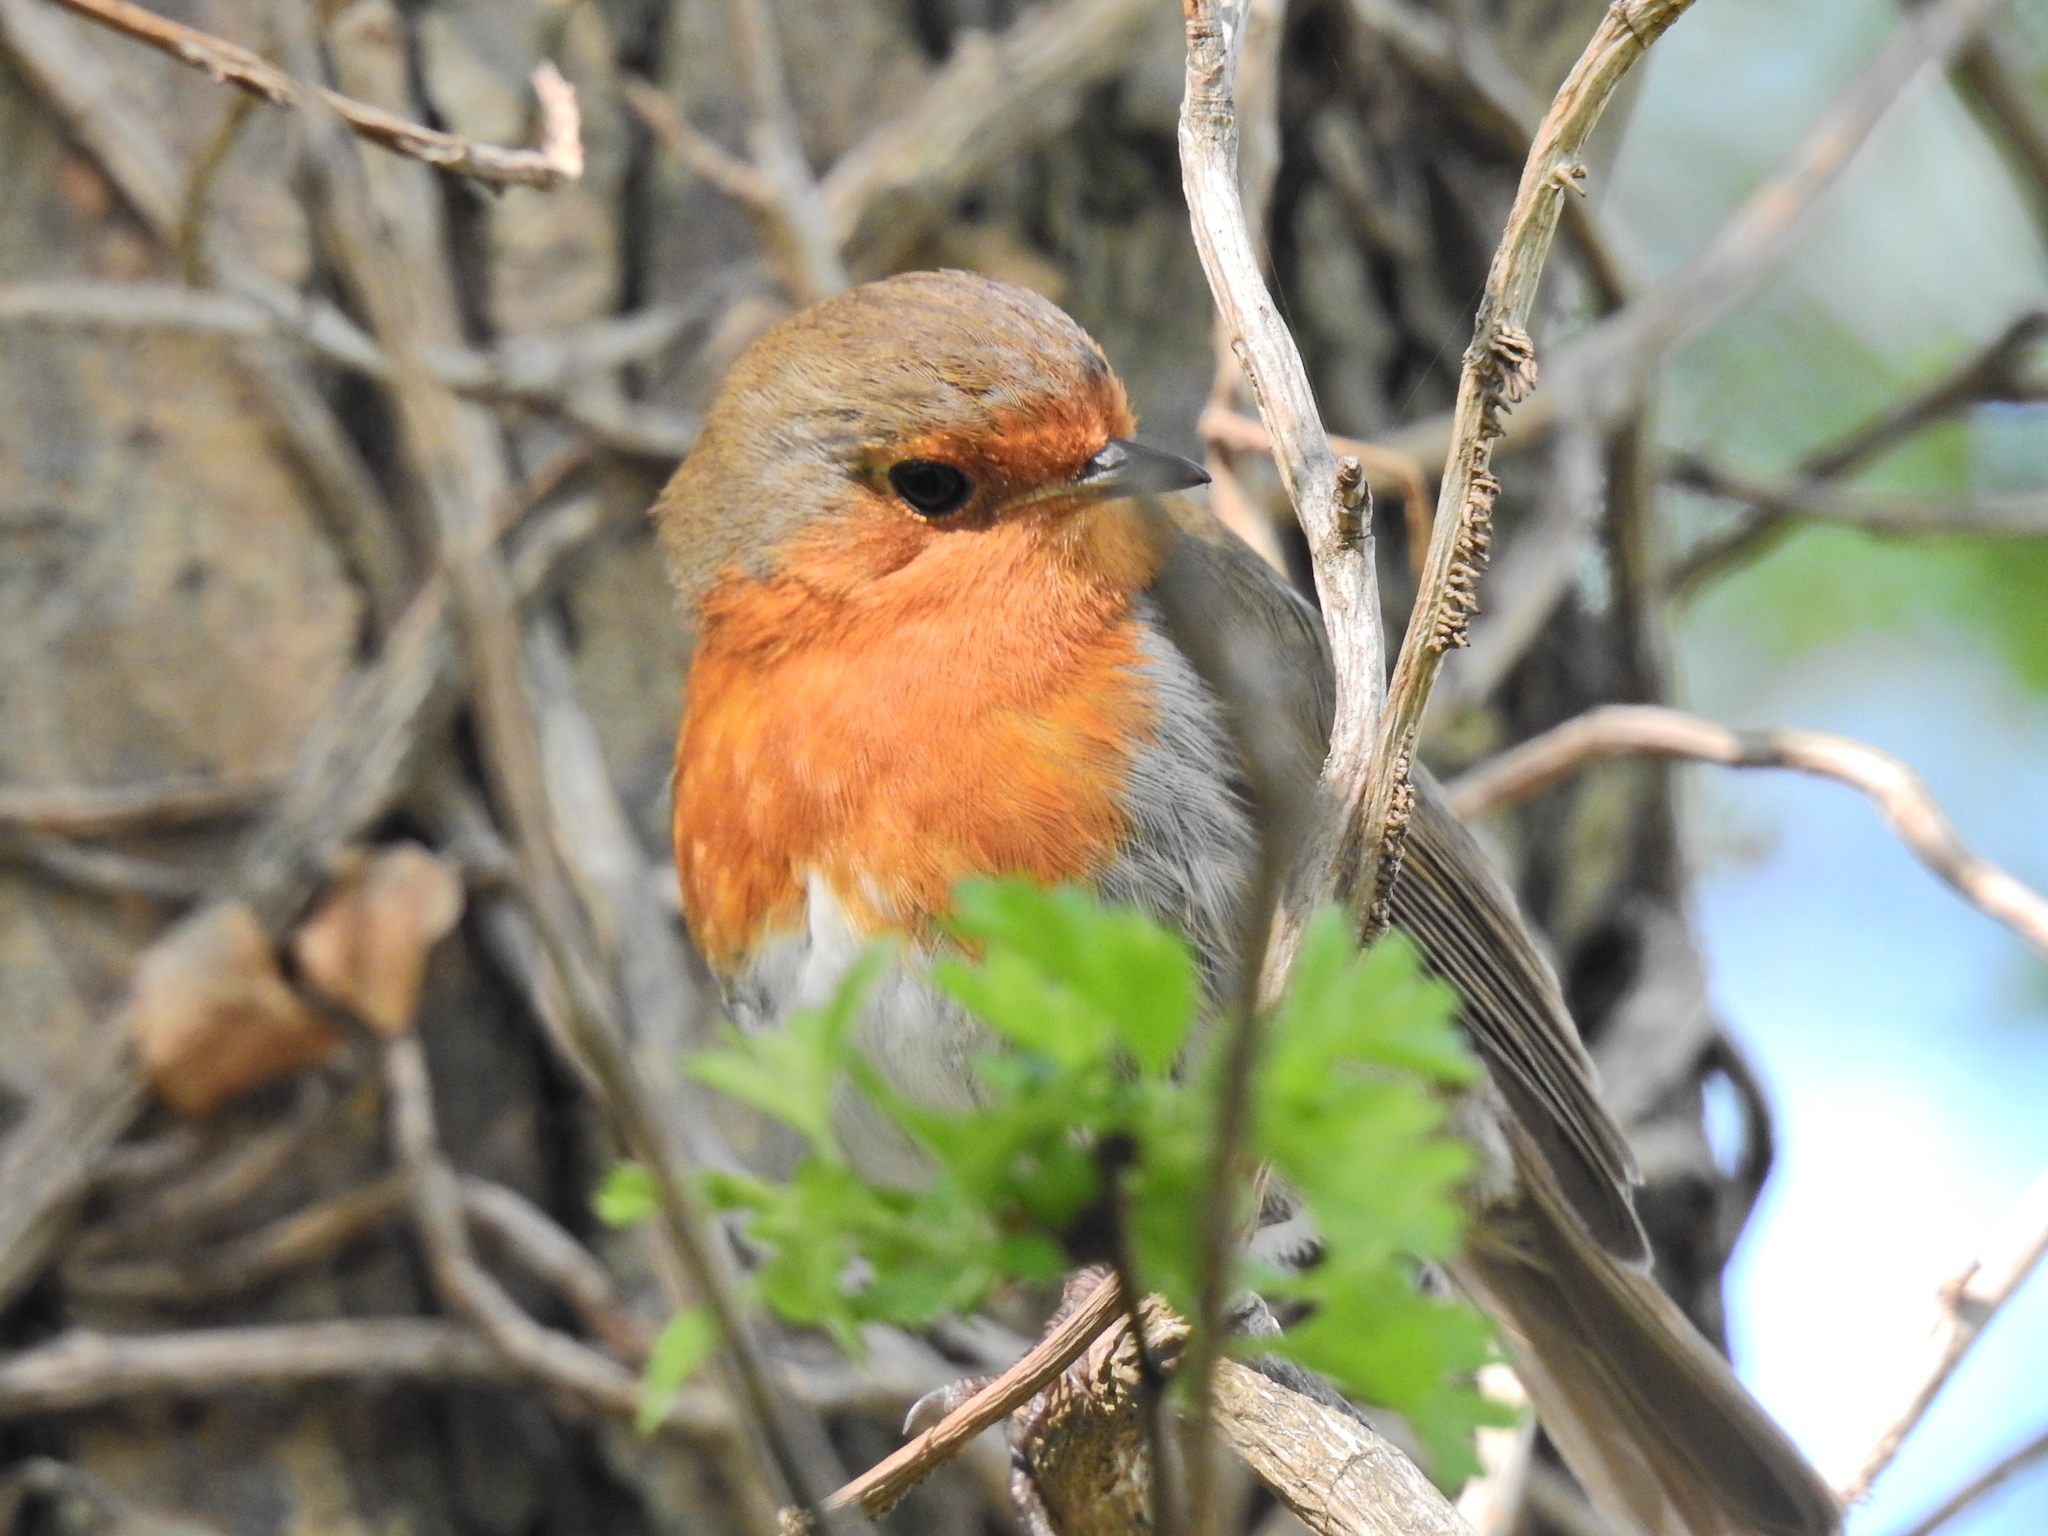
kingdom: Animalia
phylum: Chordata
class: Aves
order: Passeriformes
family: Muscicapidae
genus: Erithacus
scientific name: Erithacus rubecula
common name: European robin
